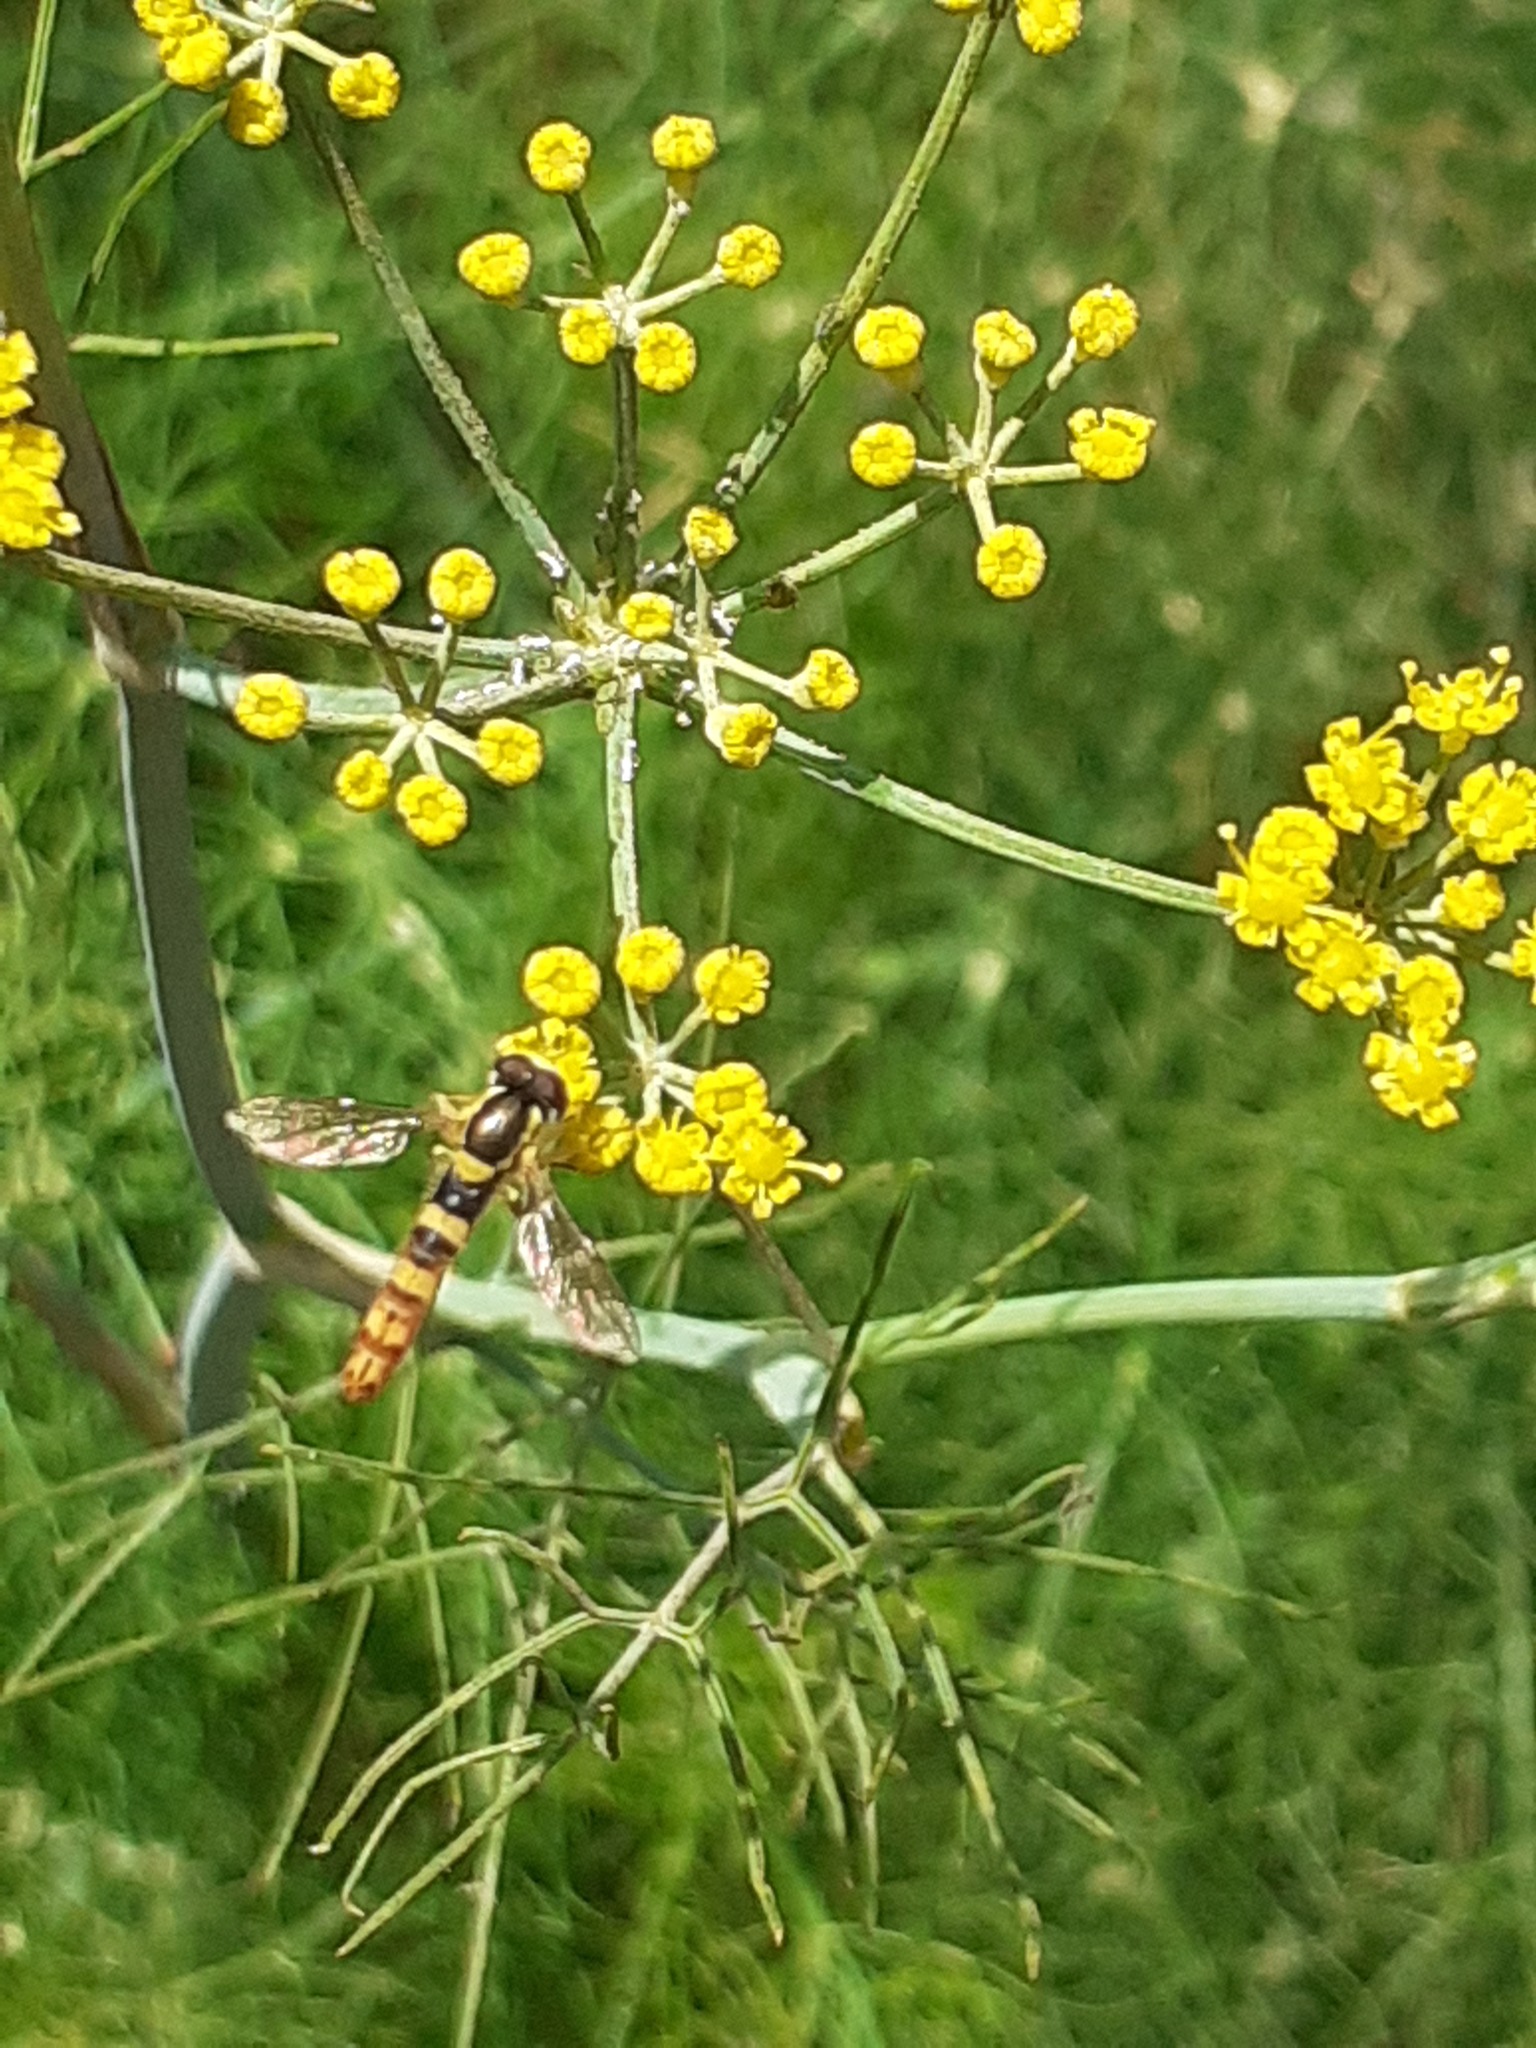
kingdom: Animalia
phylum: Arthropoda
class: Insecta
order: Diptera
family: Syrphidae
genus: Sphaerophoria
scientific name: Sphaerophoria scripta
